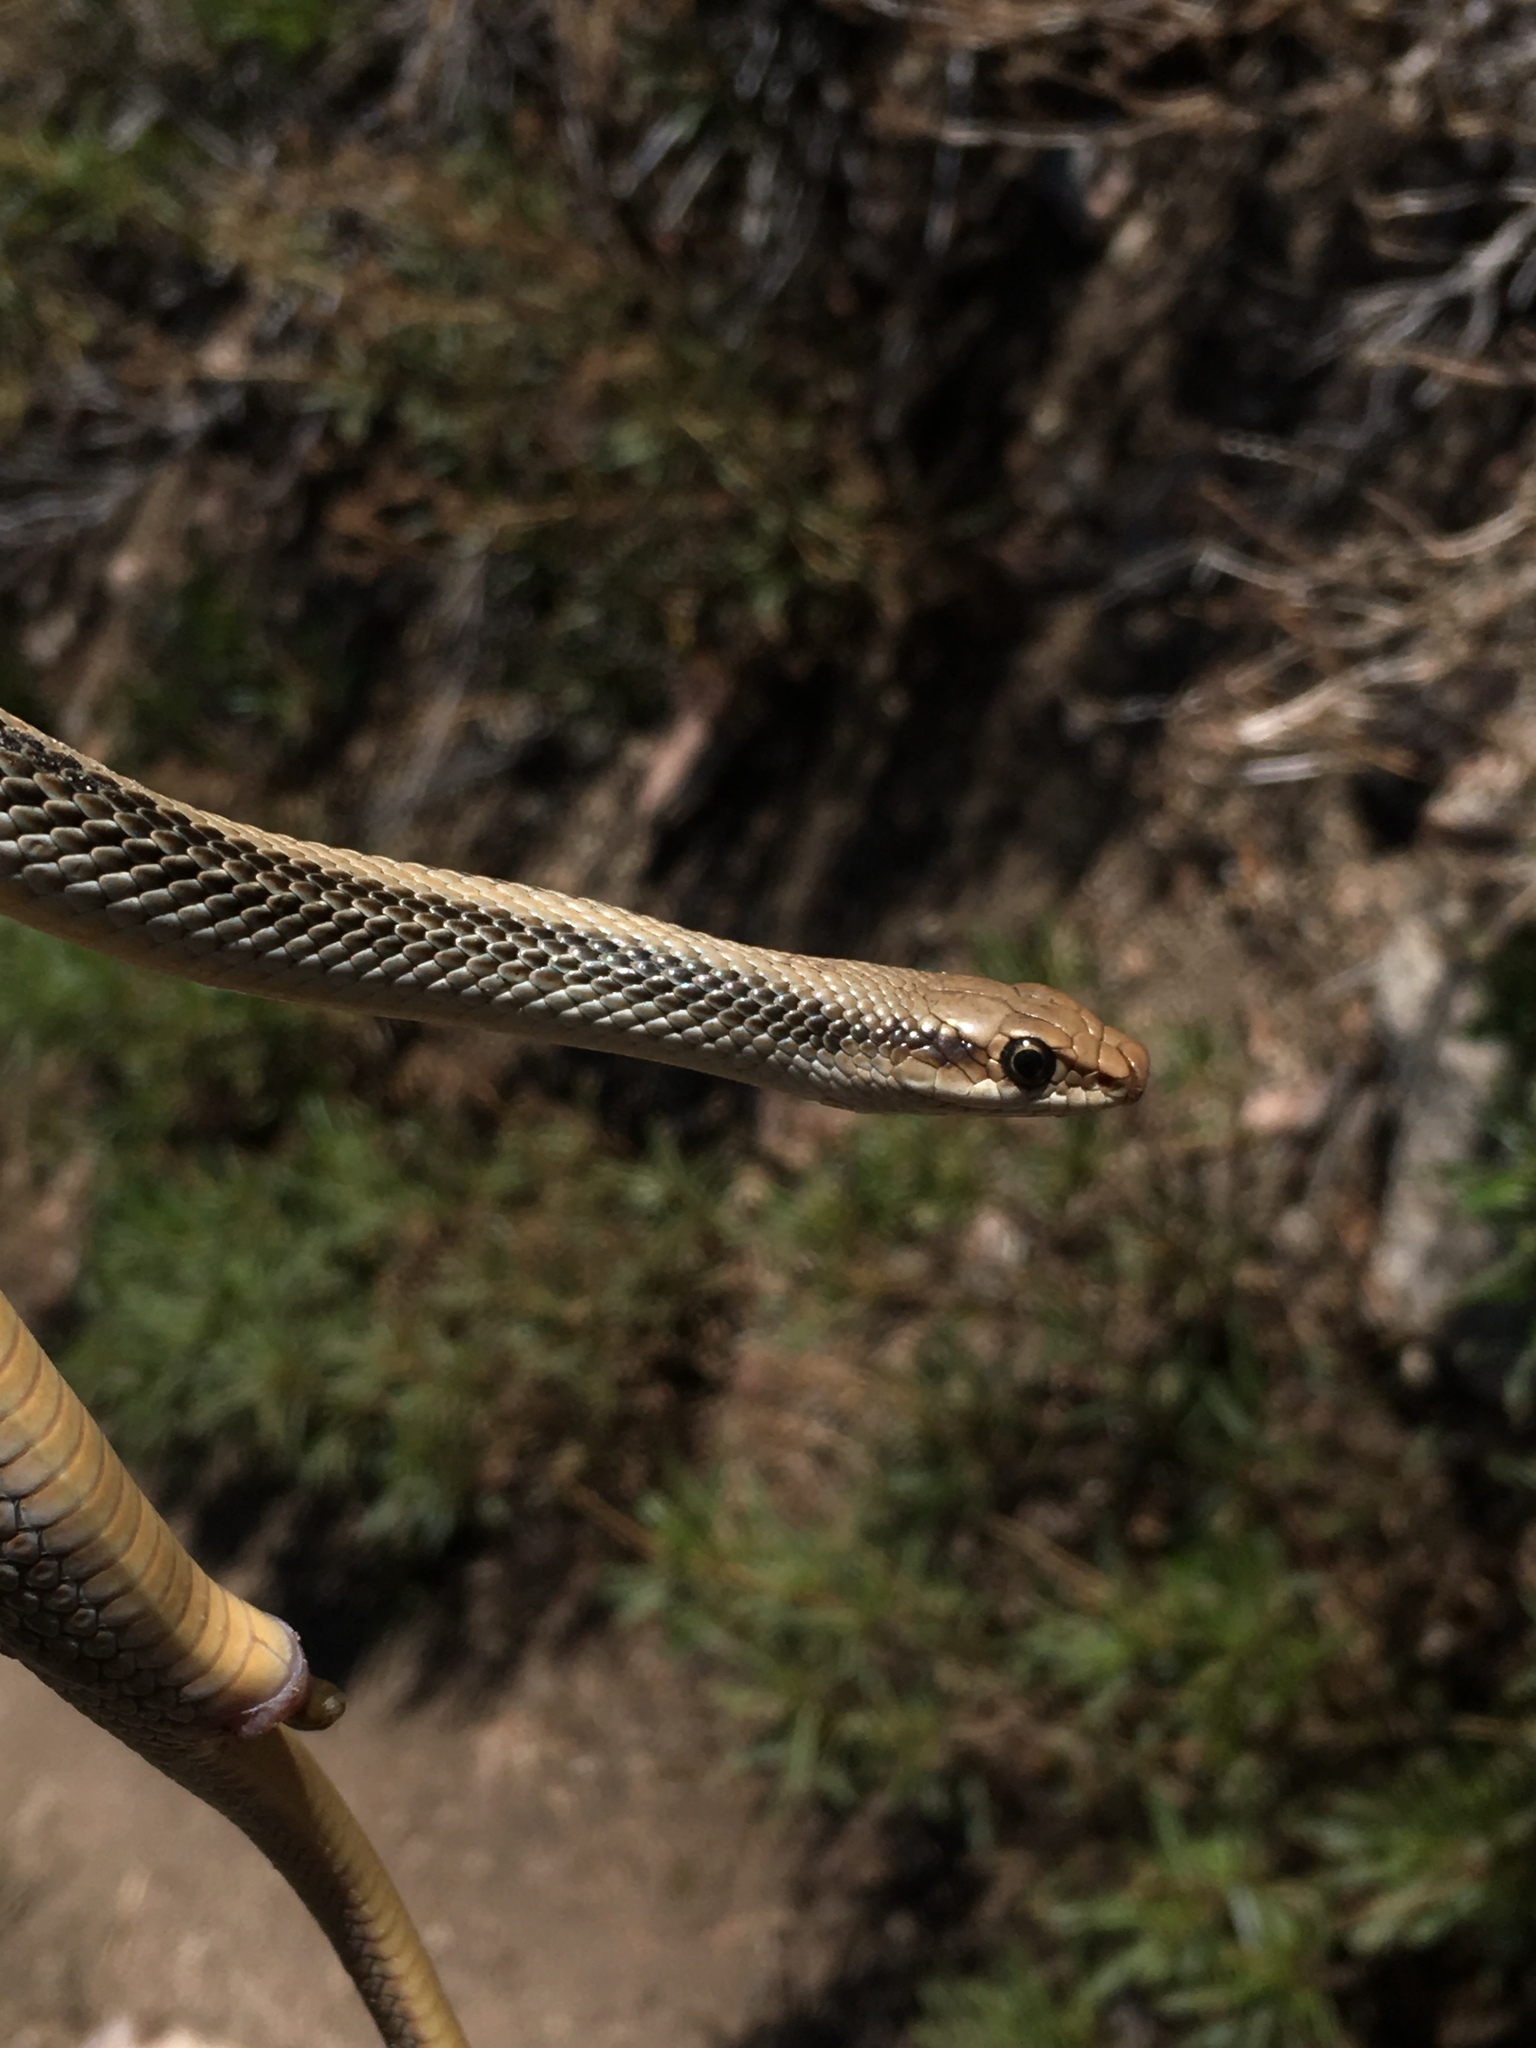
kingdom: Animalia
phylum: Chordata
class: Squamata
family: Colubridae
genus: Salvadora
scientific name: Salvadora hexalepis
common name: Western patchnose snake
